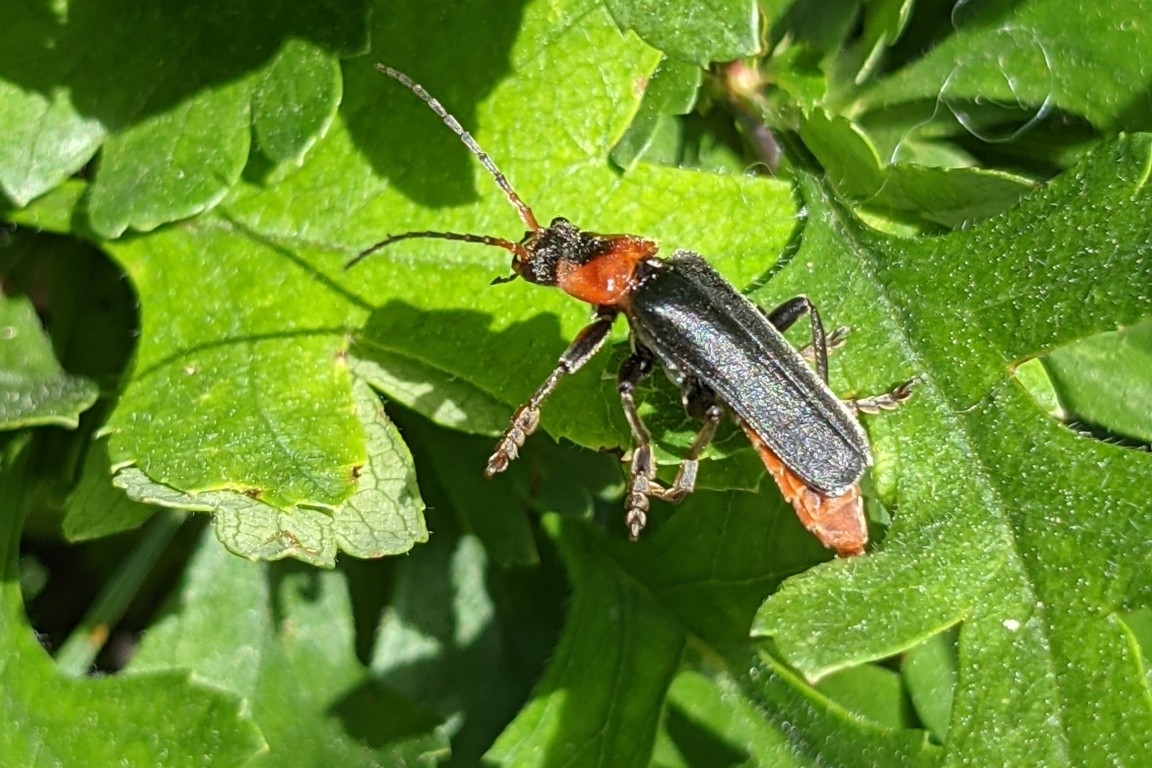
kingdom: Animalia
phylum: Arthropoda
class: Insecta
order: Coleoptera
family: Cantharidae
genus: Cantharis
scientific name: Cantharis fusca
